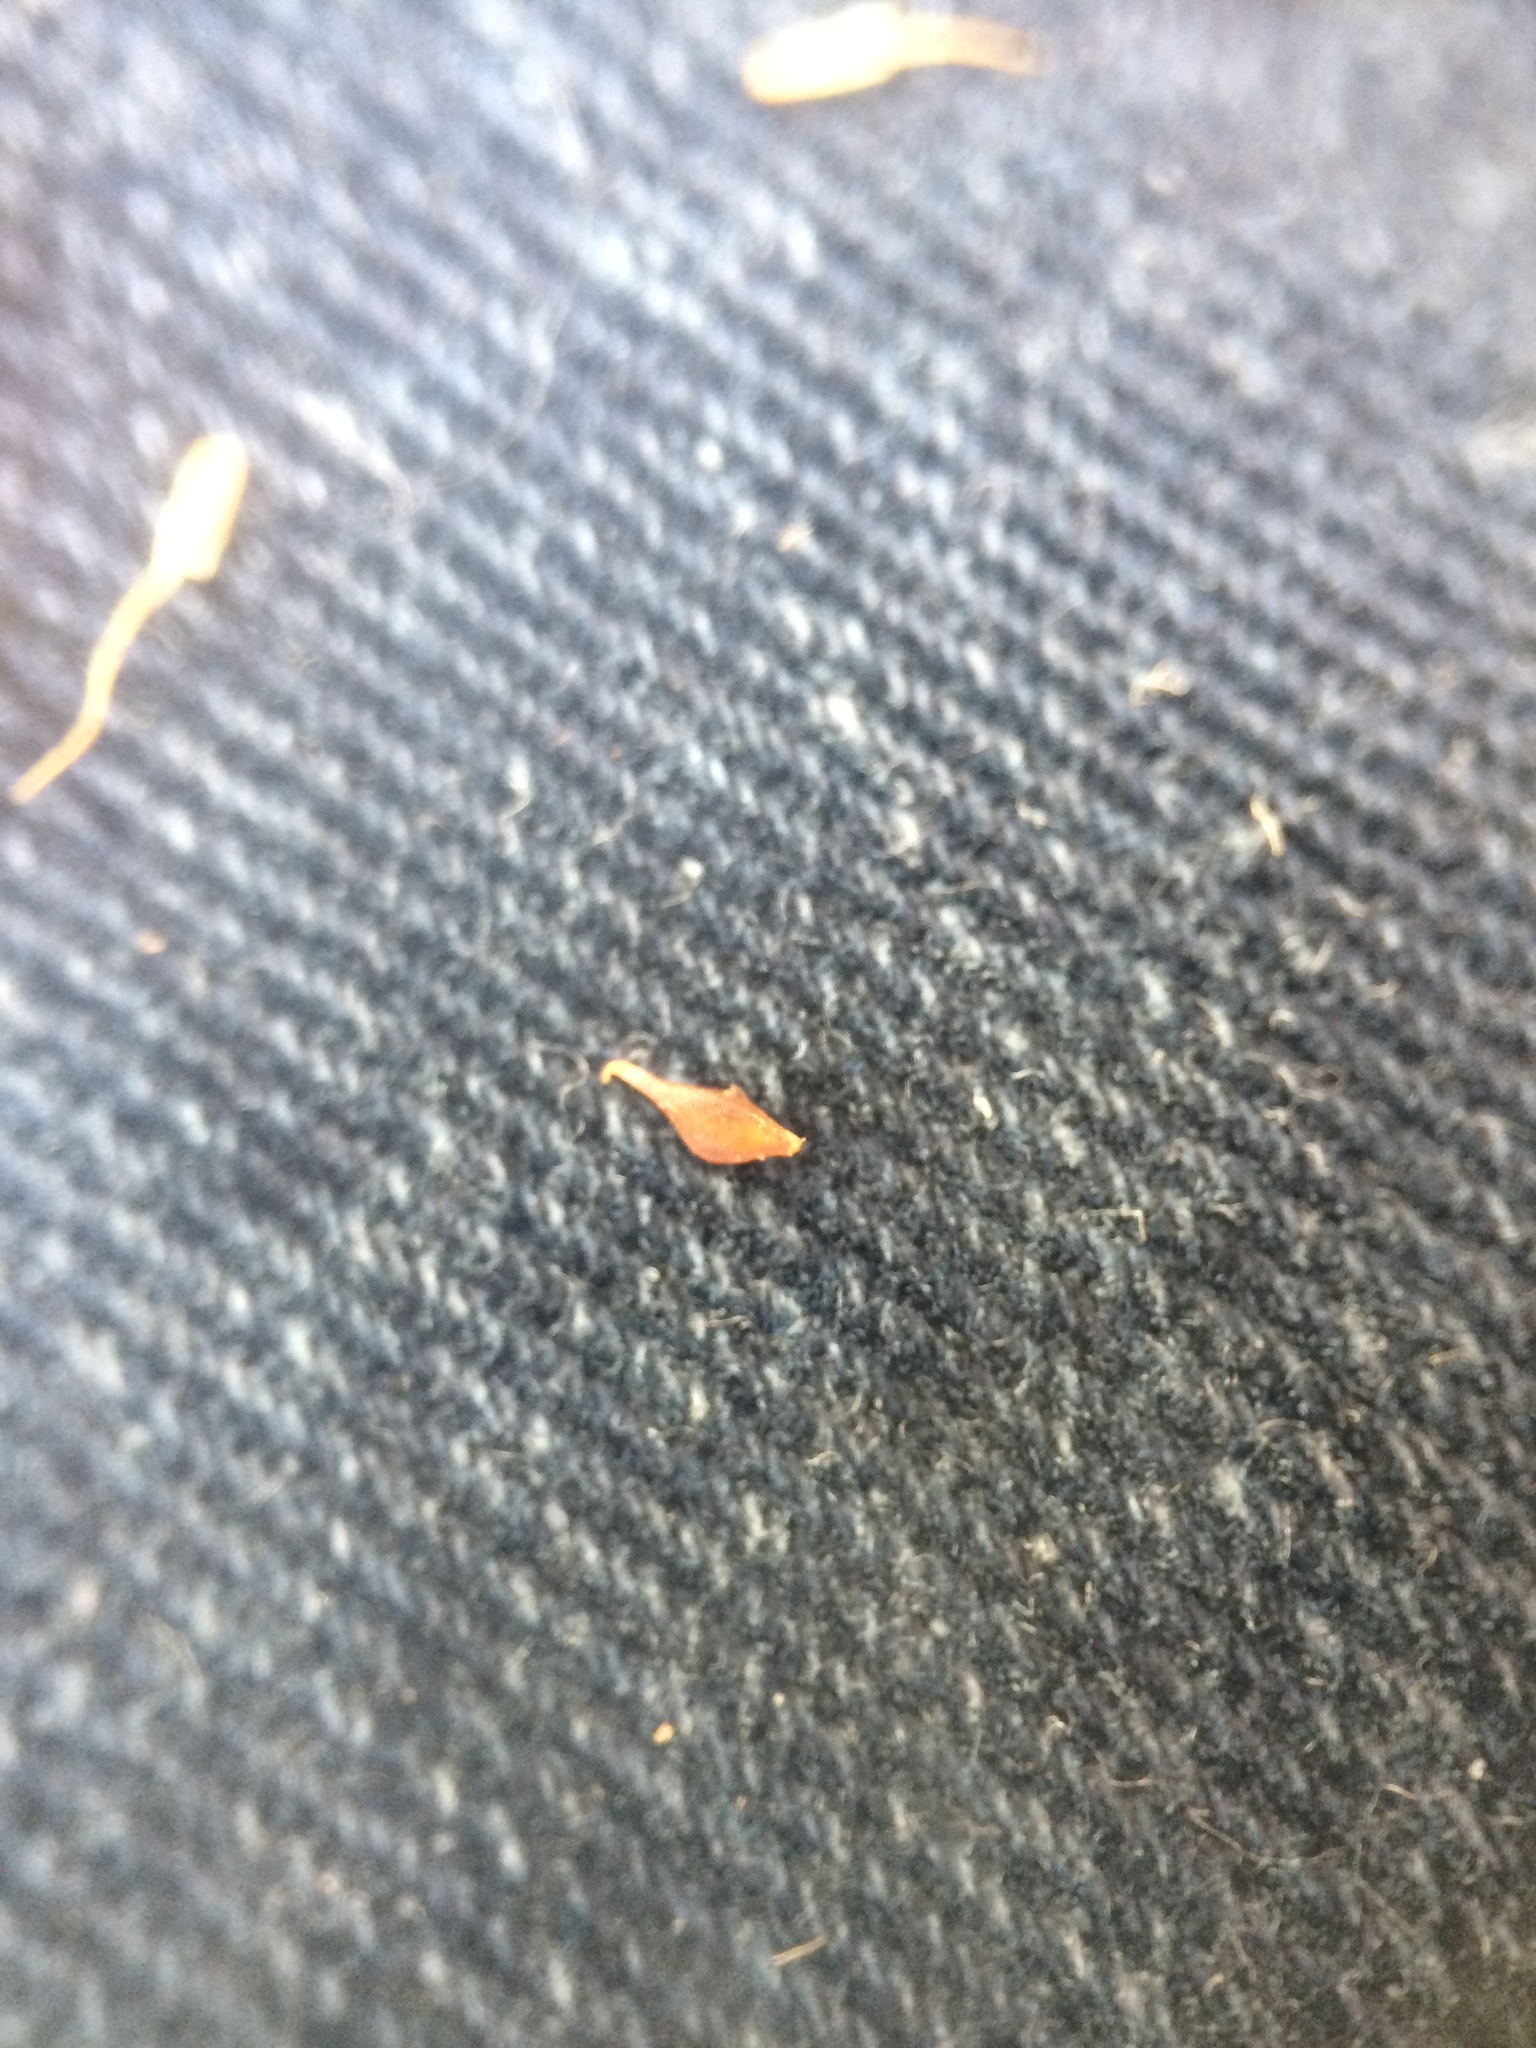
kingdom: Plantae
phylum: Tracheophyta
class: Liliopsida
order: Poales
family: Cyperaceae
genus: Carex
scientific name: Carex lurida
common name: Sallow sedge
